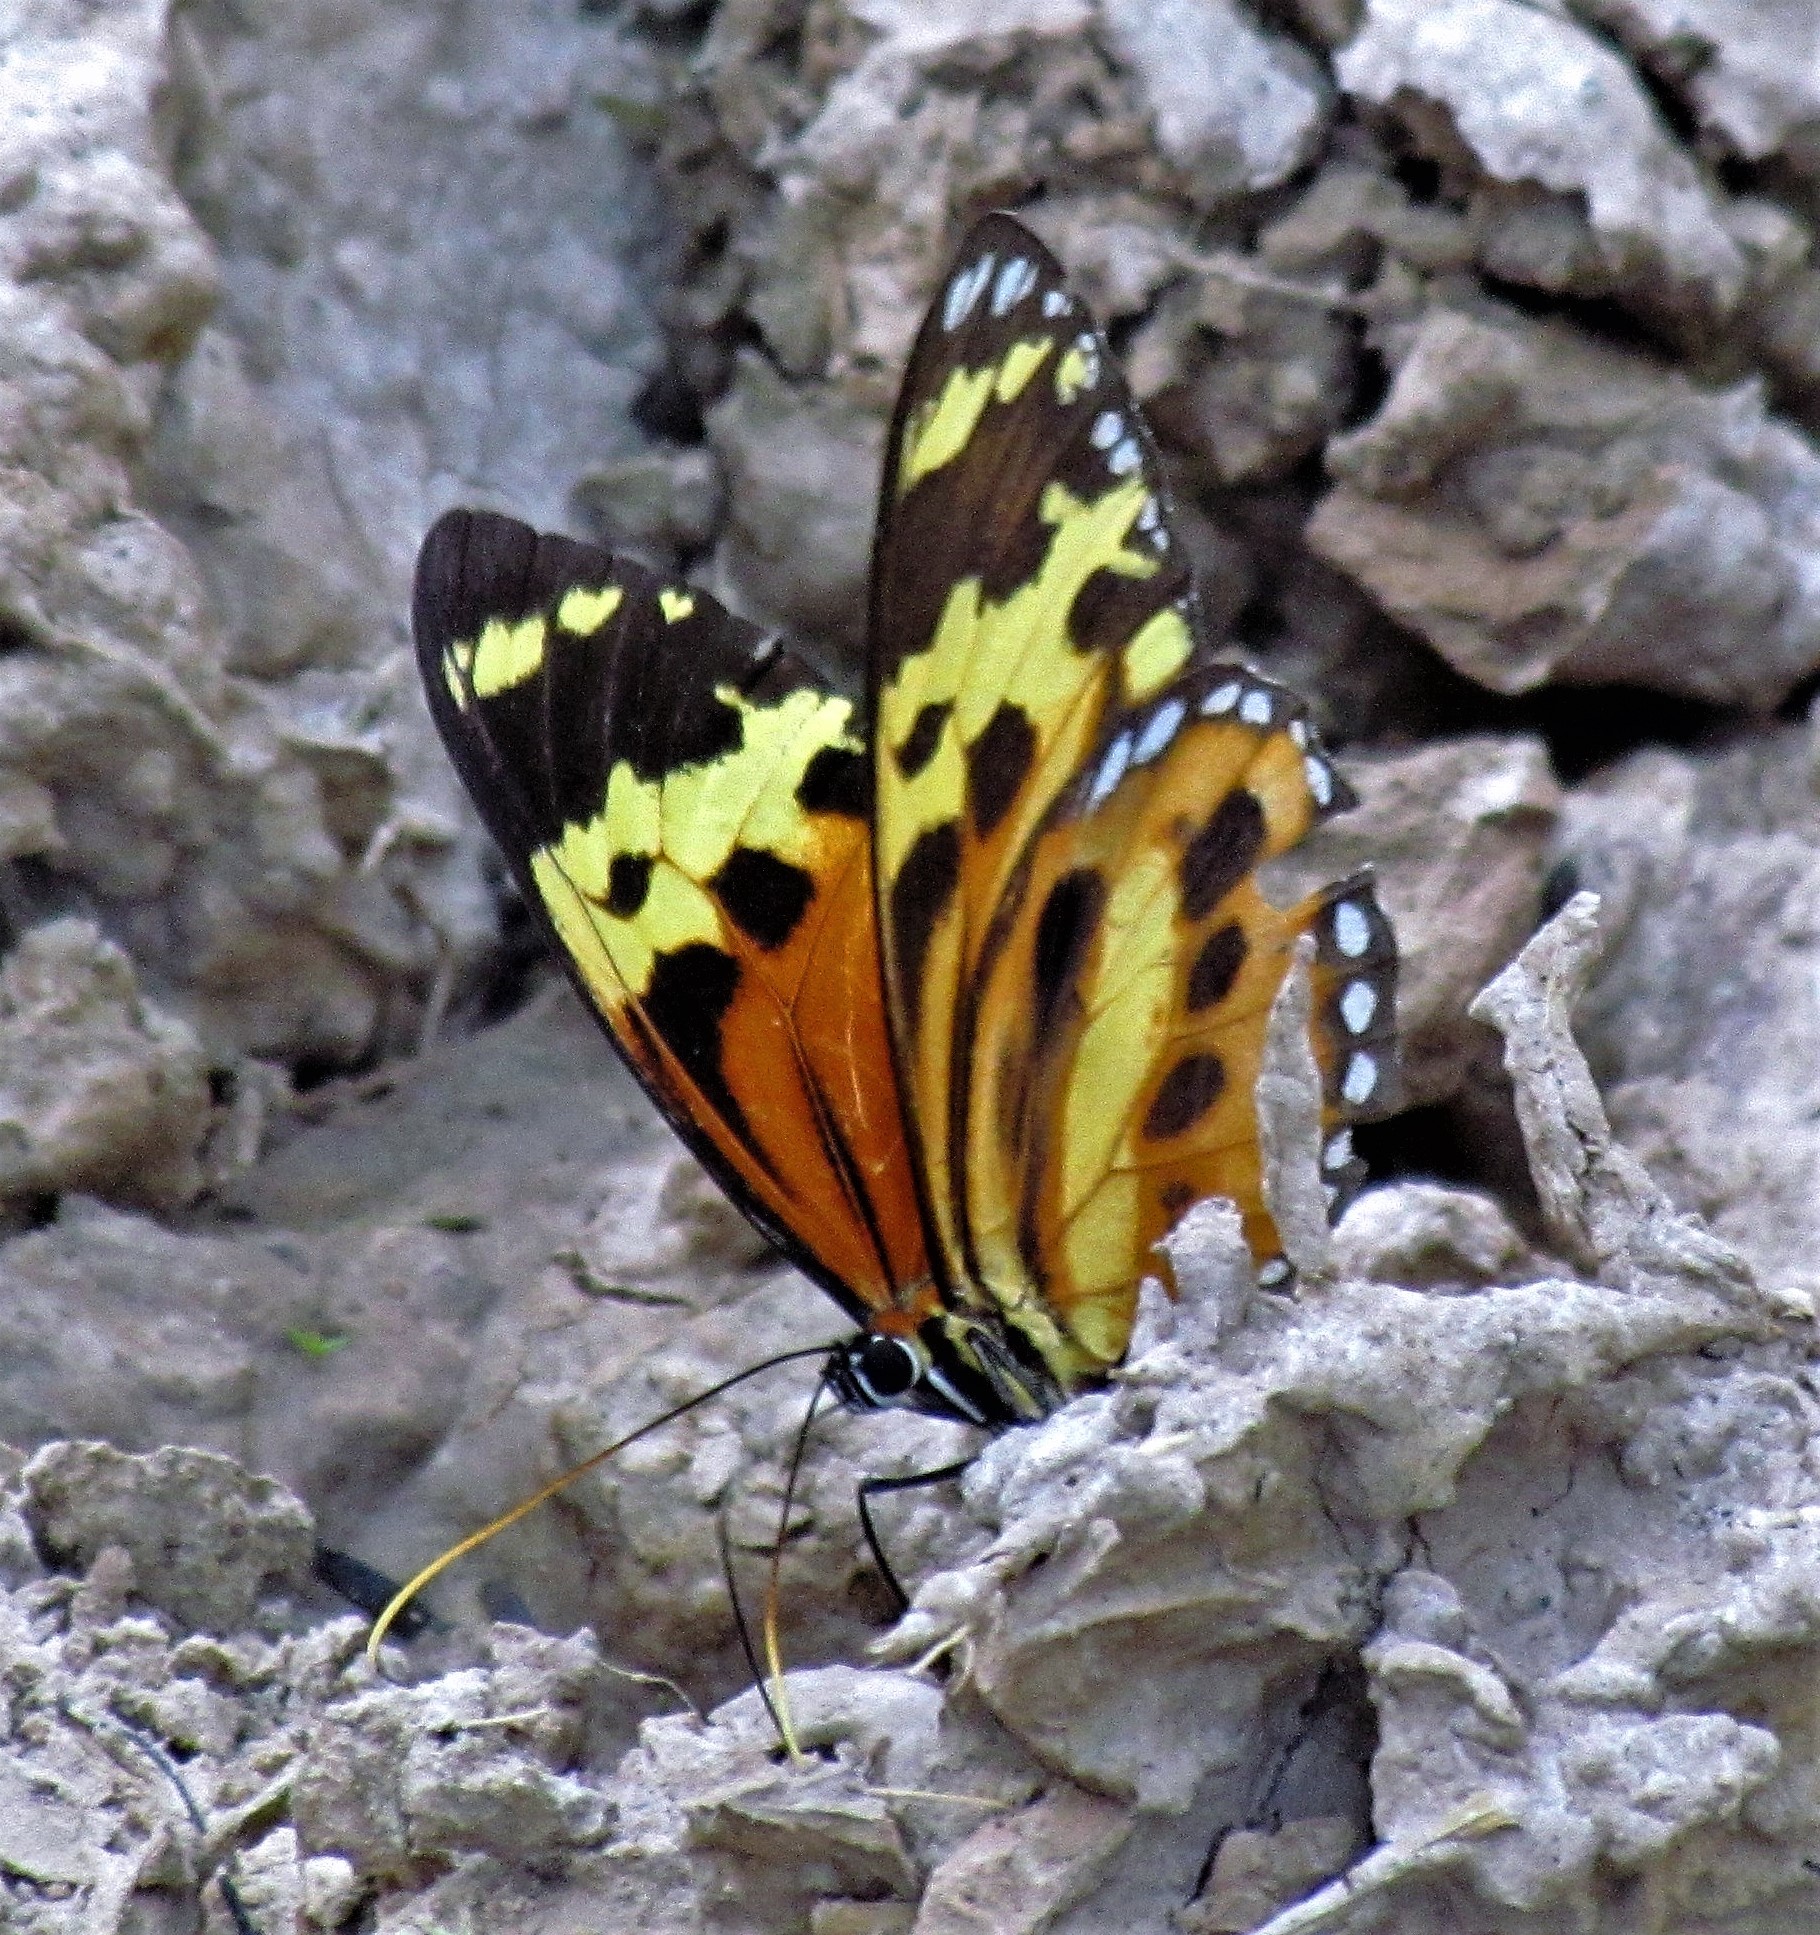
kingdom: Animalia
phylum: Arthropoda
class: Insecta
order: Lepidoptera
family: Nymphalidae
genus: Tithorea
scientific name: Tithorea harmonia
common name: Harmonia tigerwing
